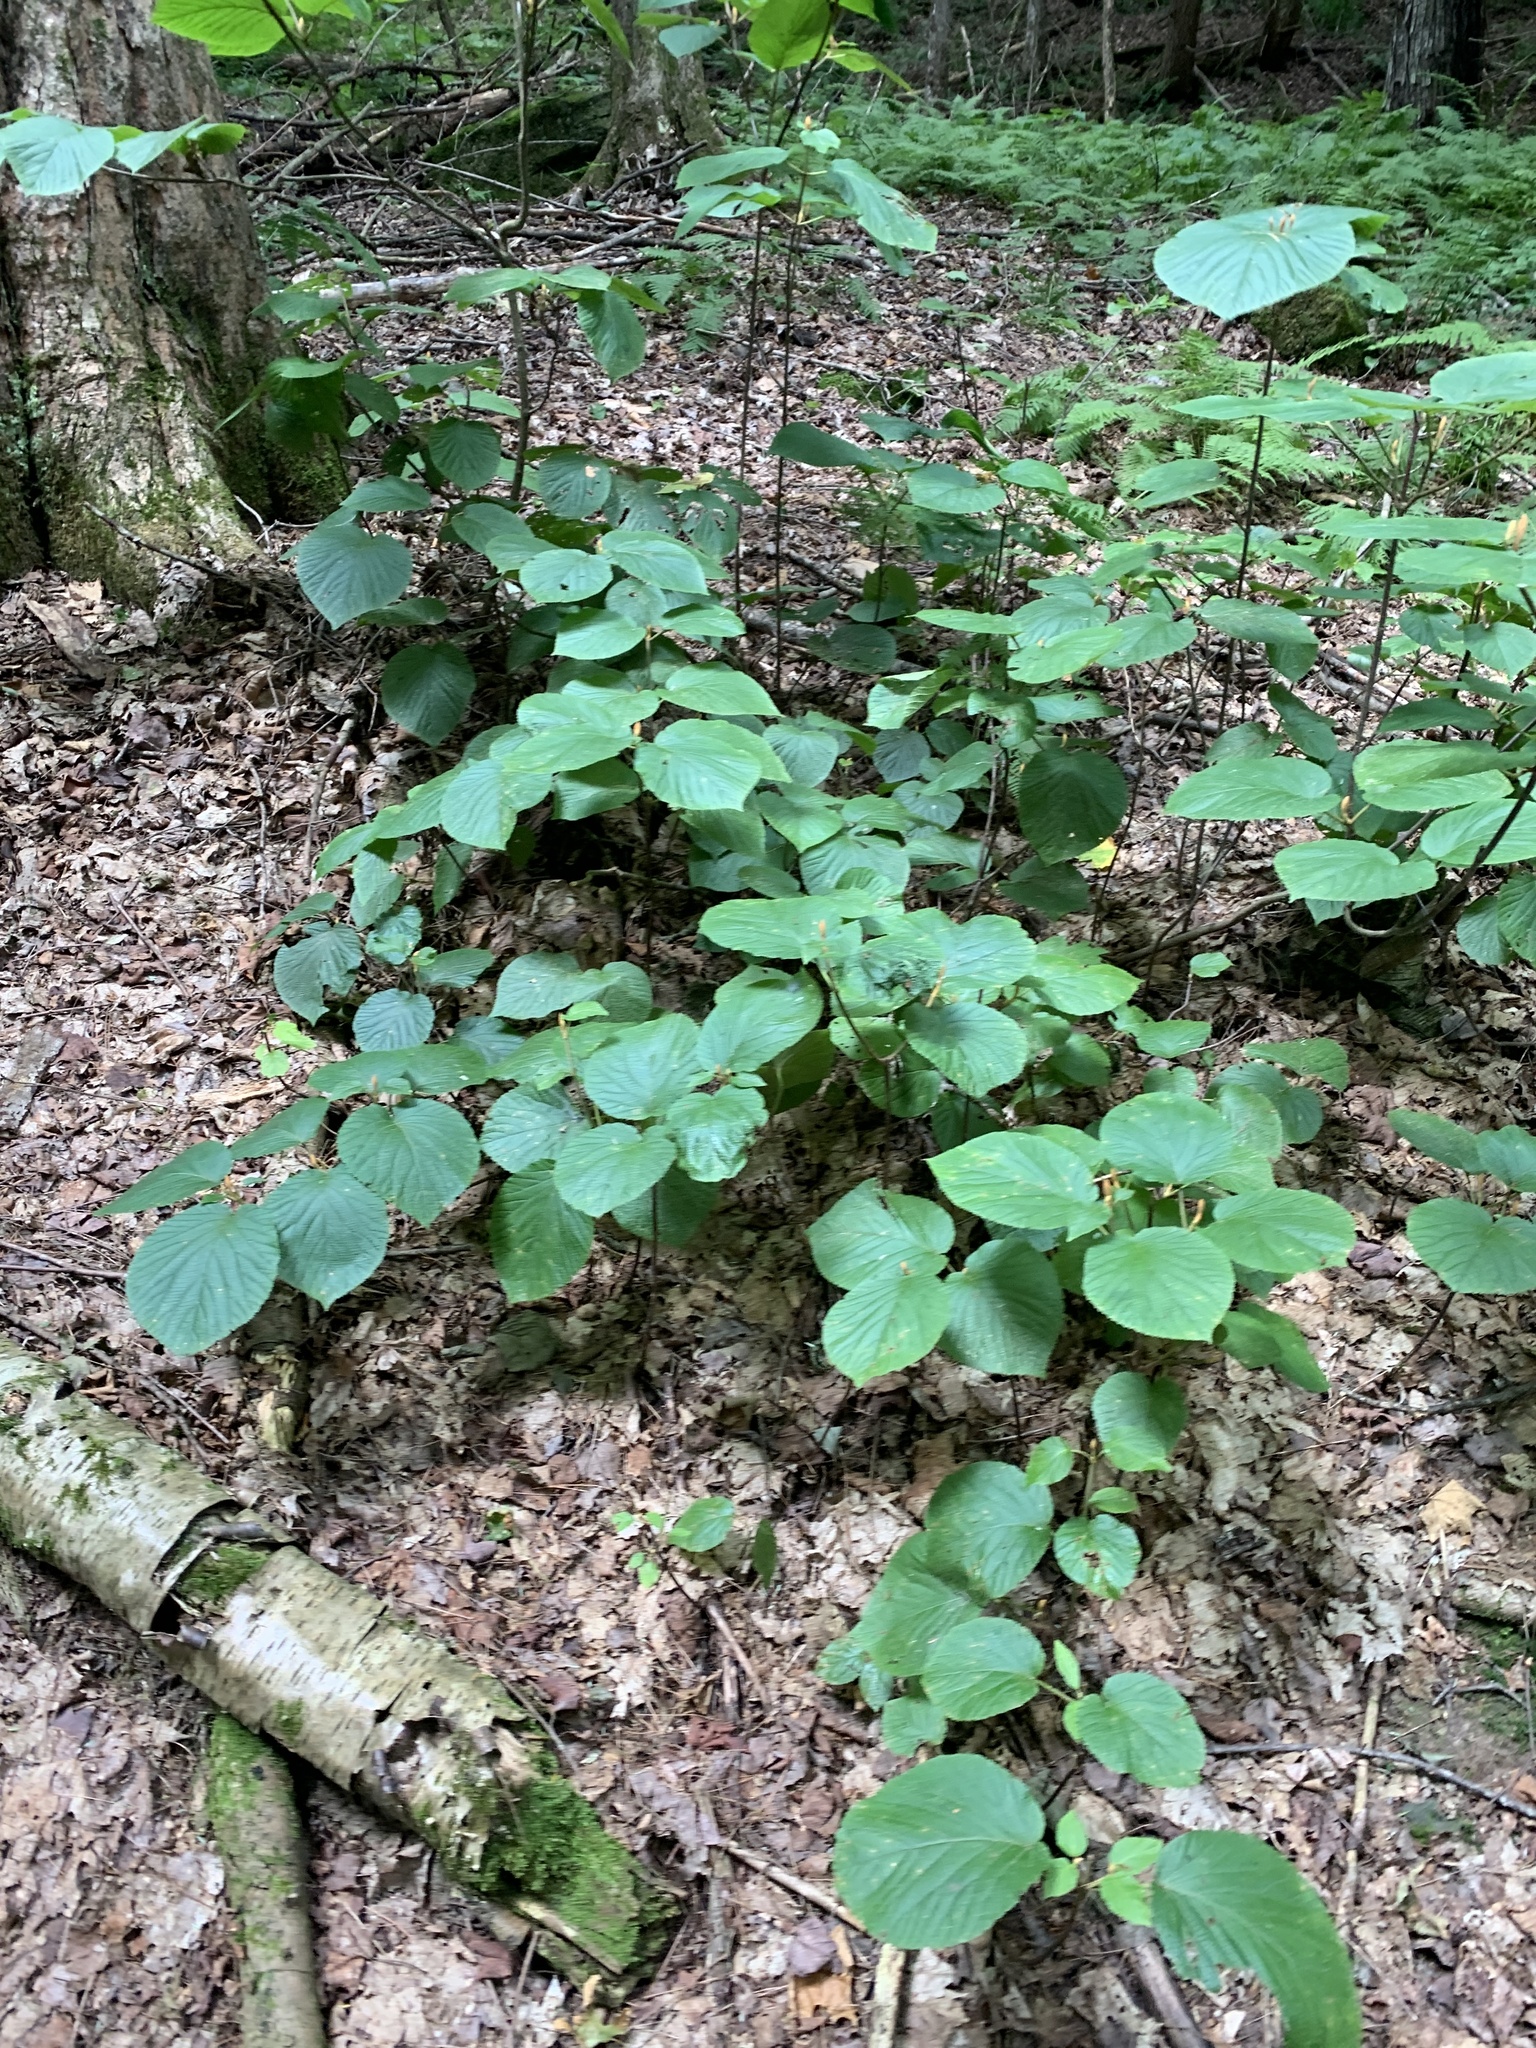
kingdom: Plantae
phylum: Tracheophyta
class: Magnoliopsida
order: Dipsacales
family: Viburnaceae
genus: Viburnum
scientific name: Viburnum lantanoides
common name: Hobblebush
